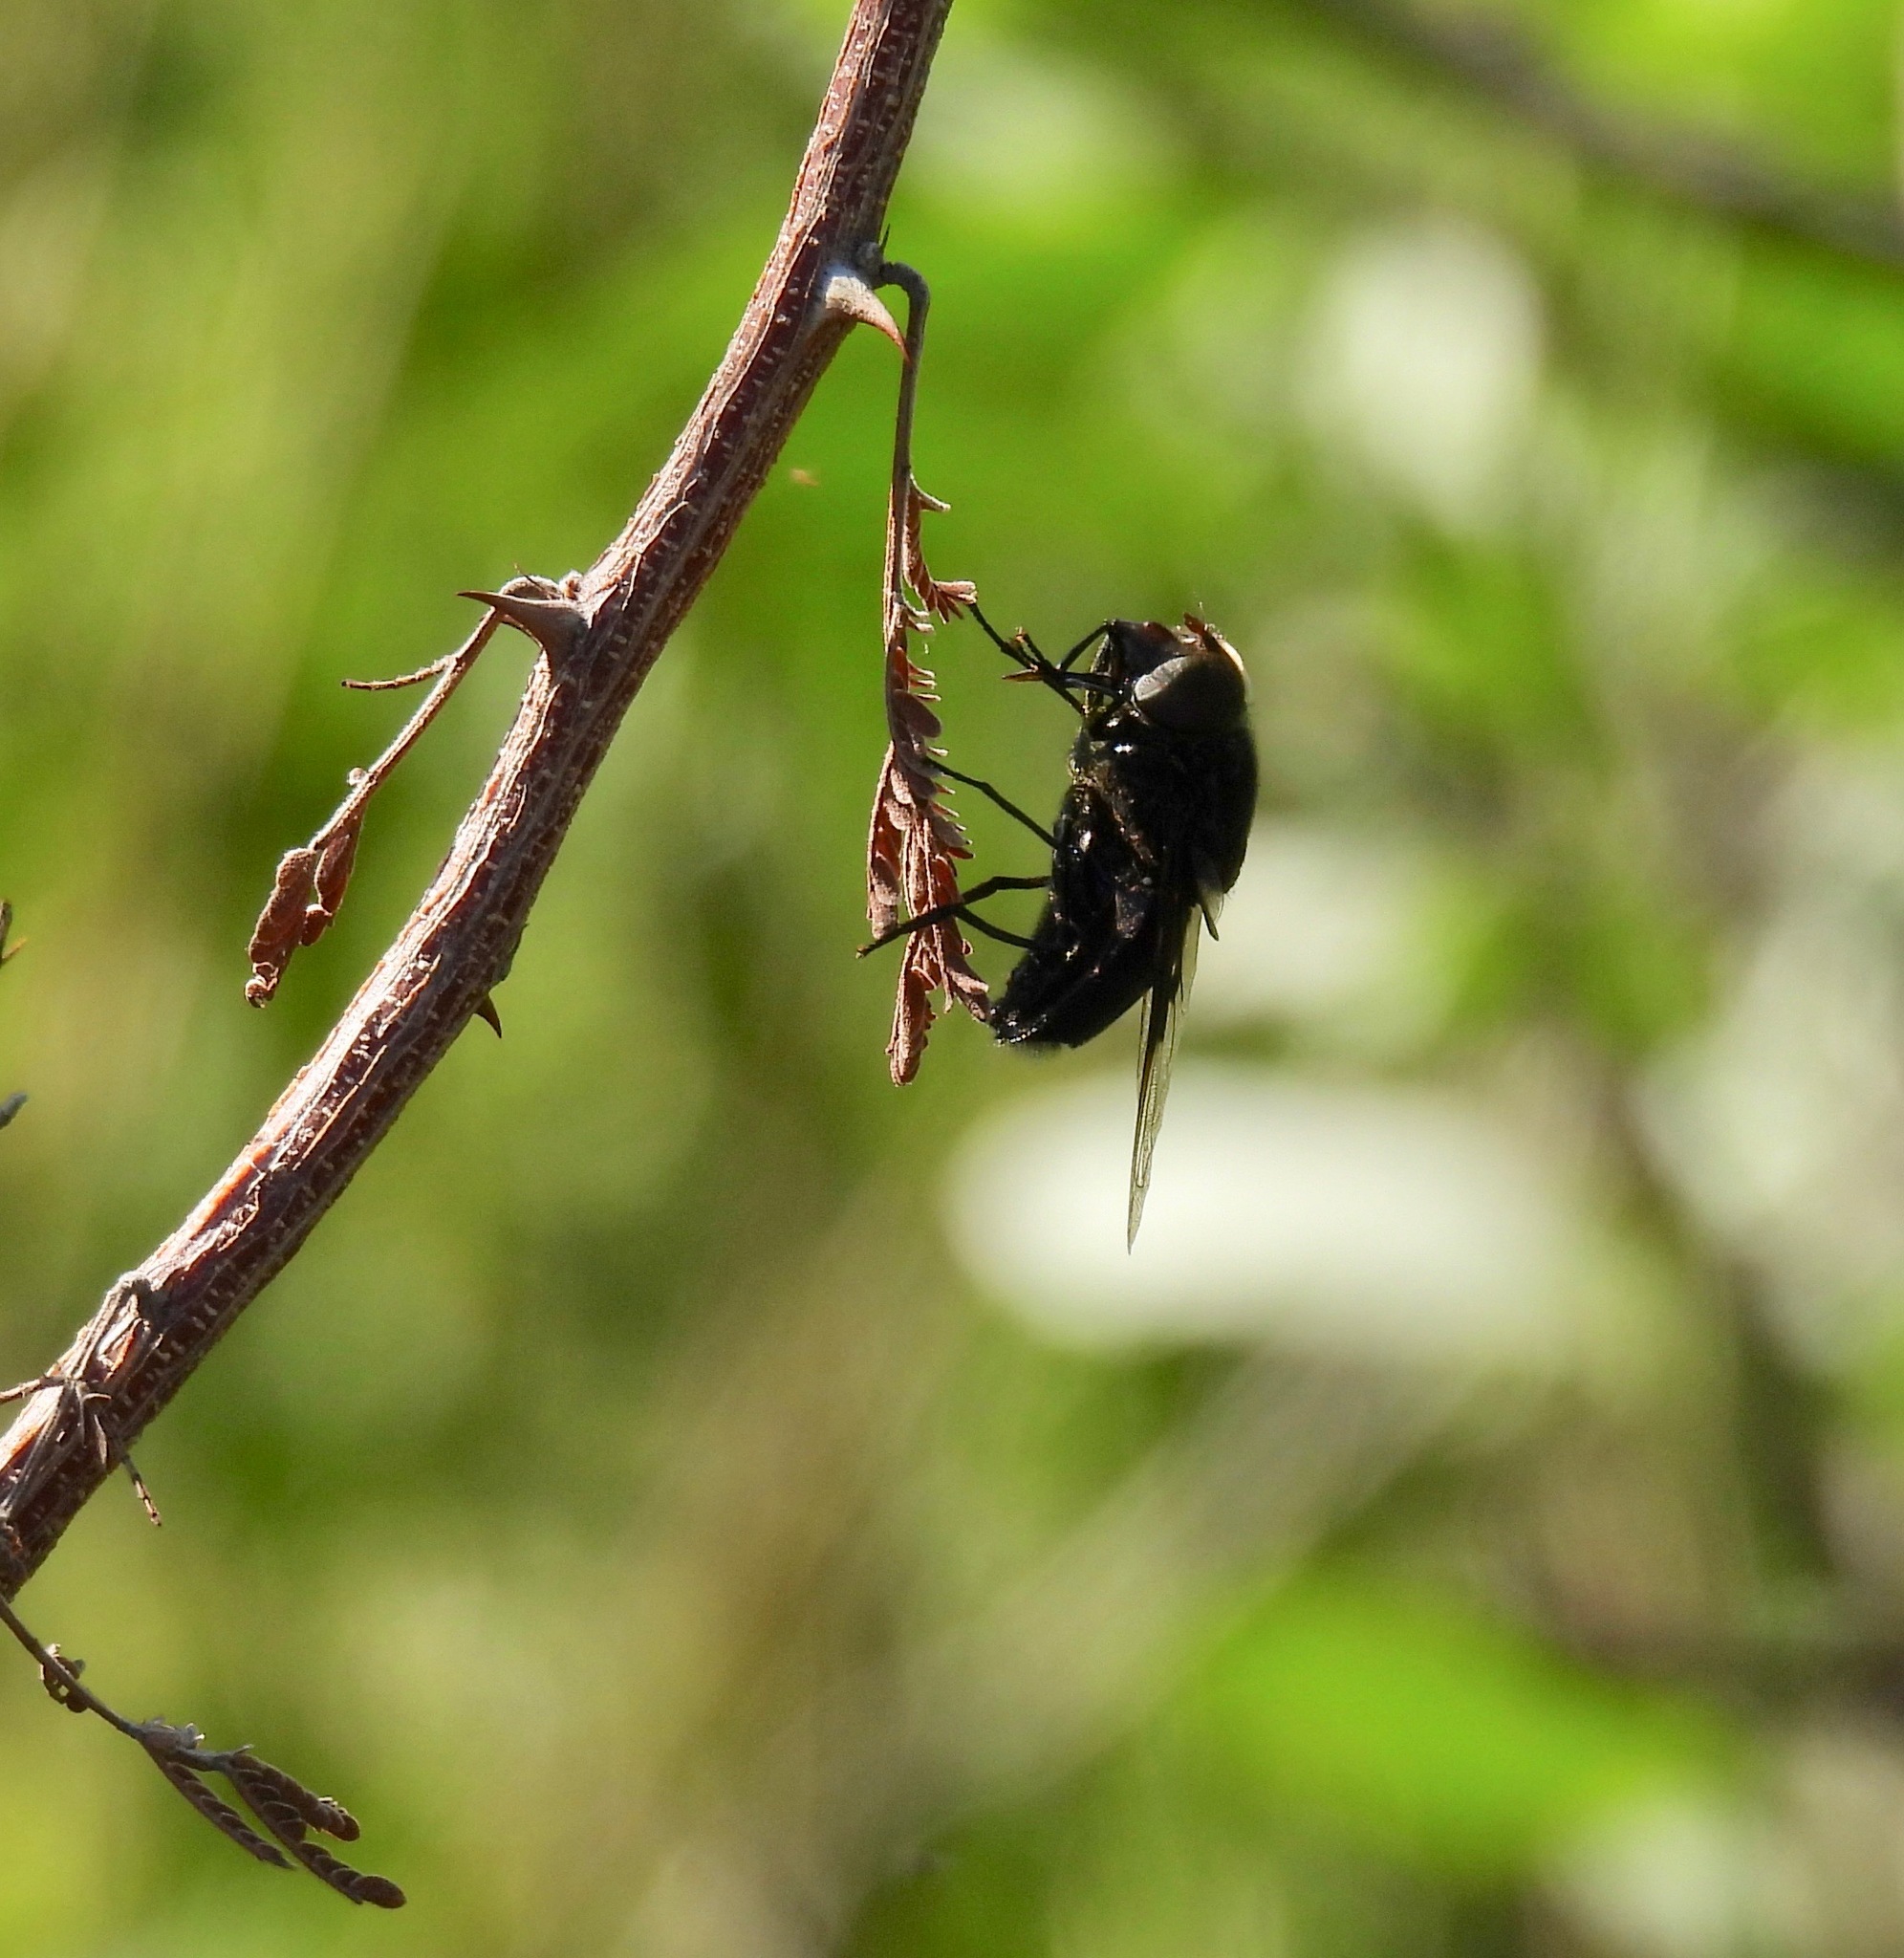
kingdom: Animalia
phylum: Arthropoda
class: Insecta
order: Diptera
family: Syrphidae
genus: Copestylum
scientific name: Copestylum mexicanum
